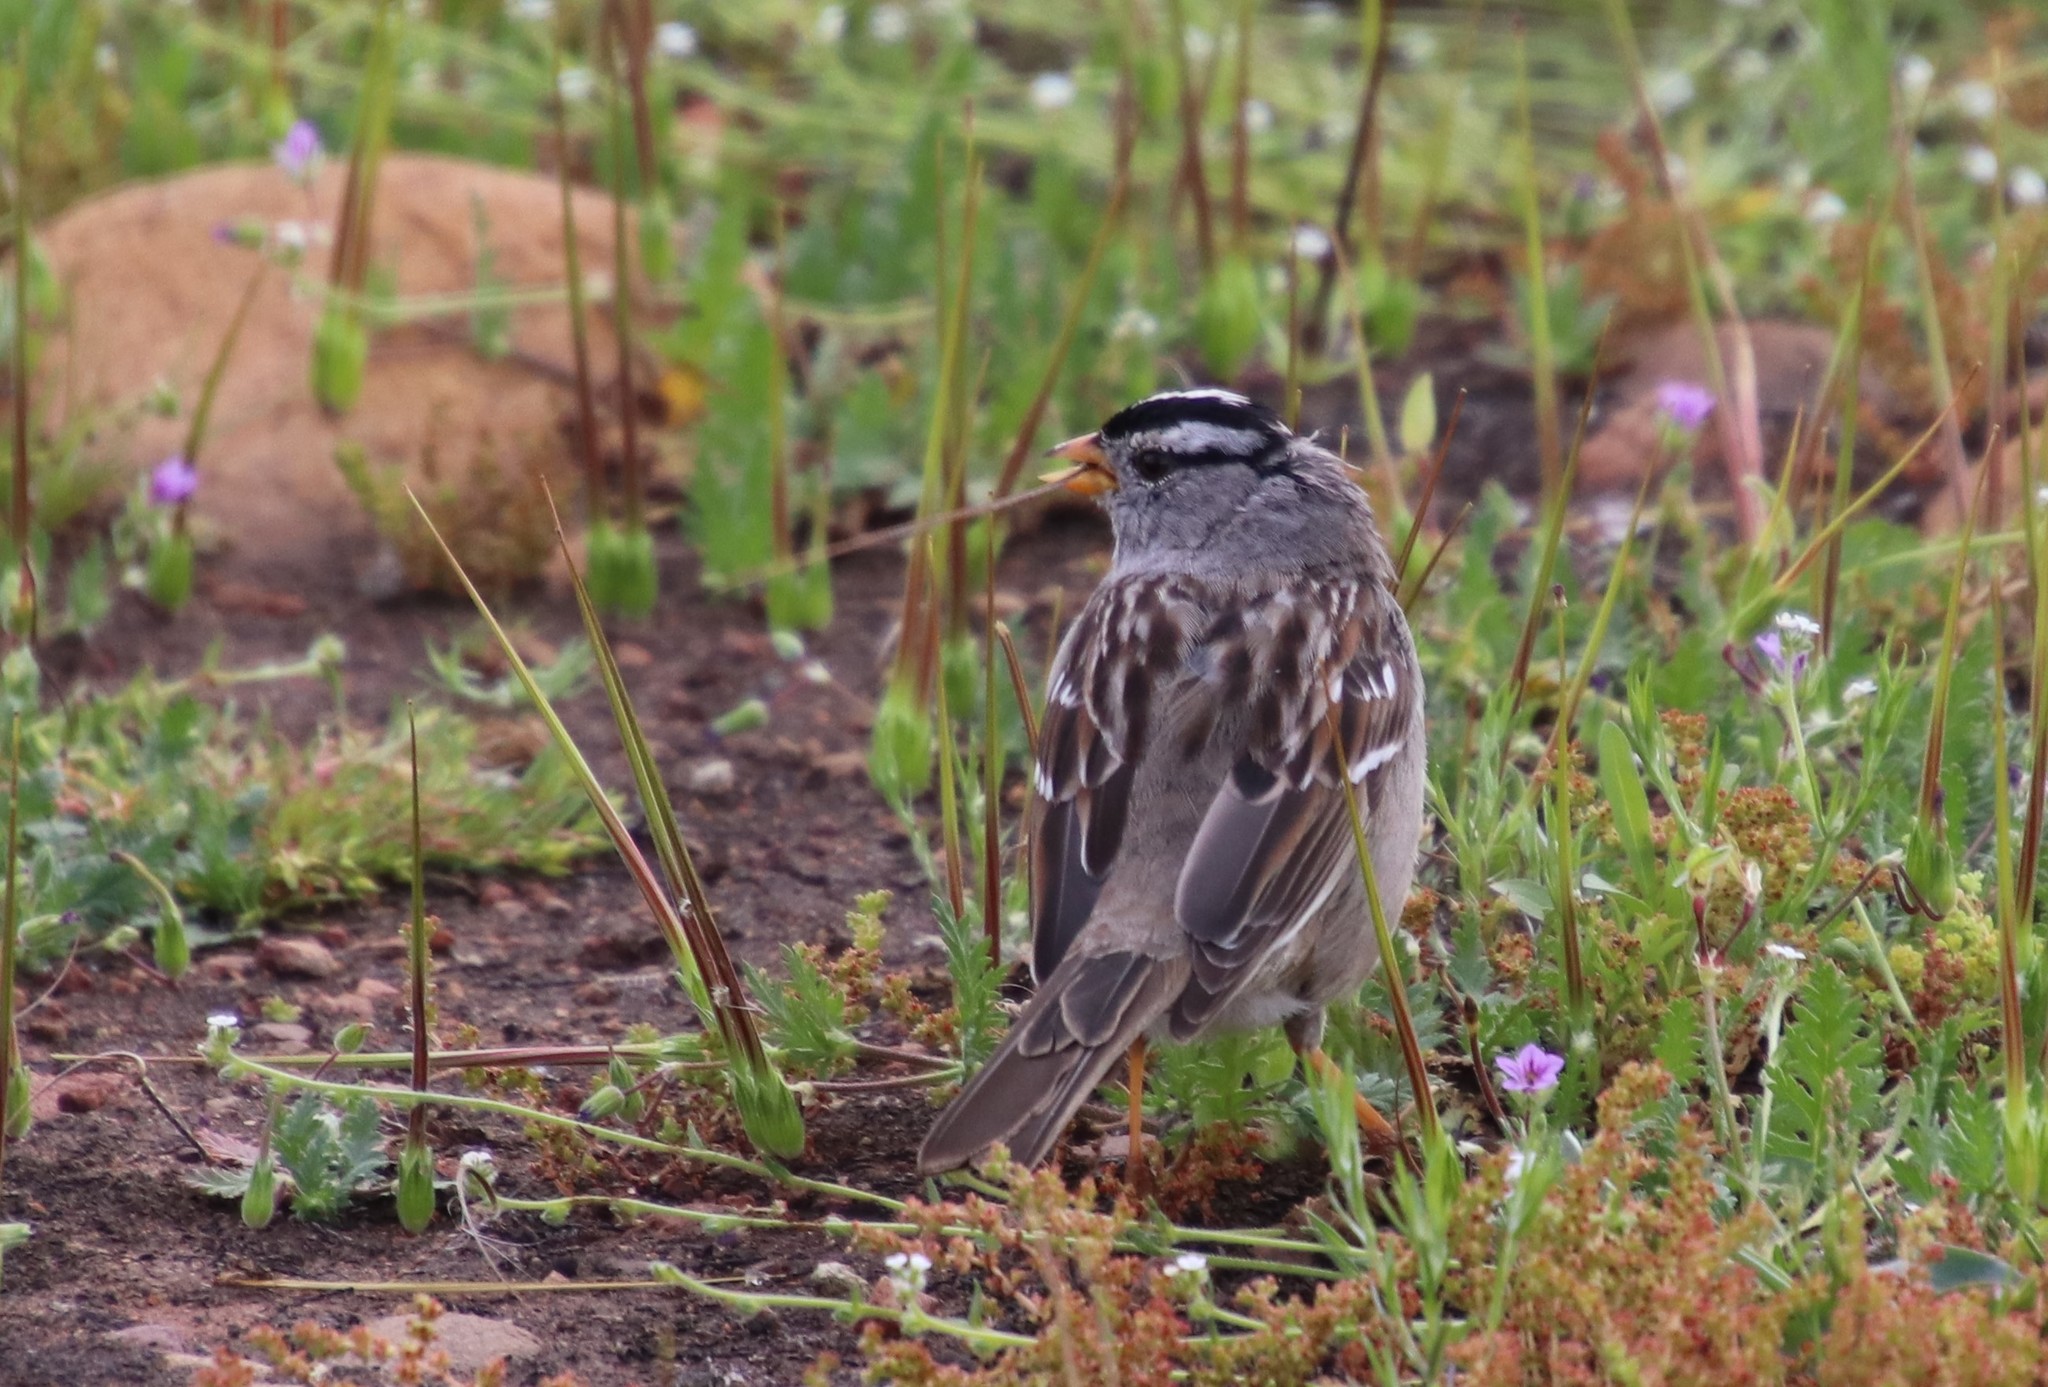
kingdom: Animalia
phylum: Chordata
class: Aves
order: Passeriformes
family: Passerellidae
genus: Zonotrichia
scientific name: Zonotrichia leucophrys
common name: White-crowned sparrow
